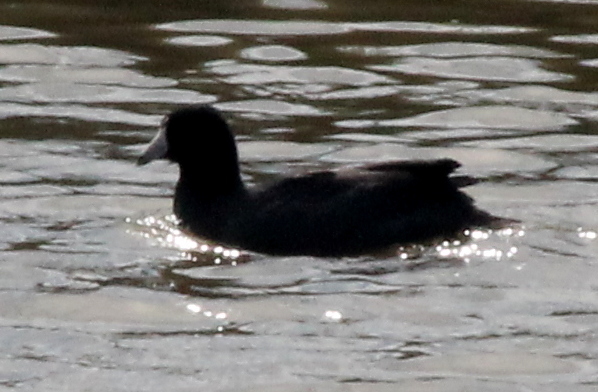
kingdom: Animalia
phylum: Chordata
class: Aves
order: Gruiformes
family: Rallidae
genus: Fulica
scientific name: Fulica americana
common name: American coot
